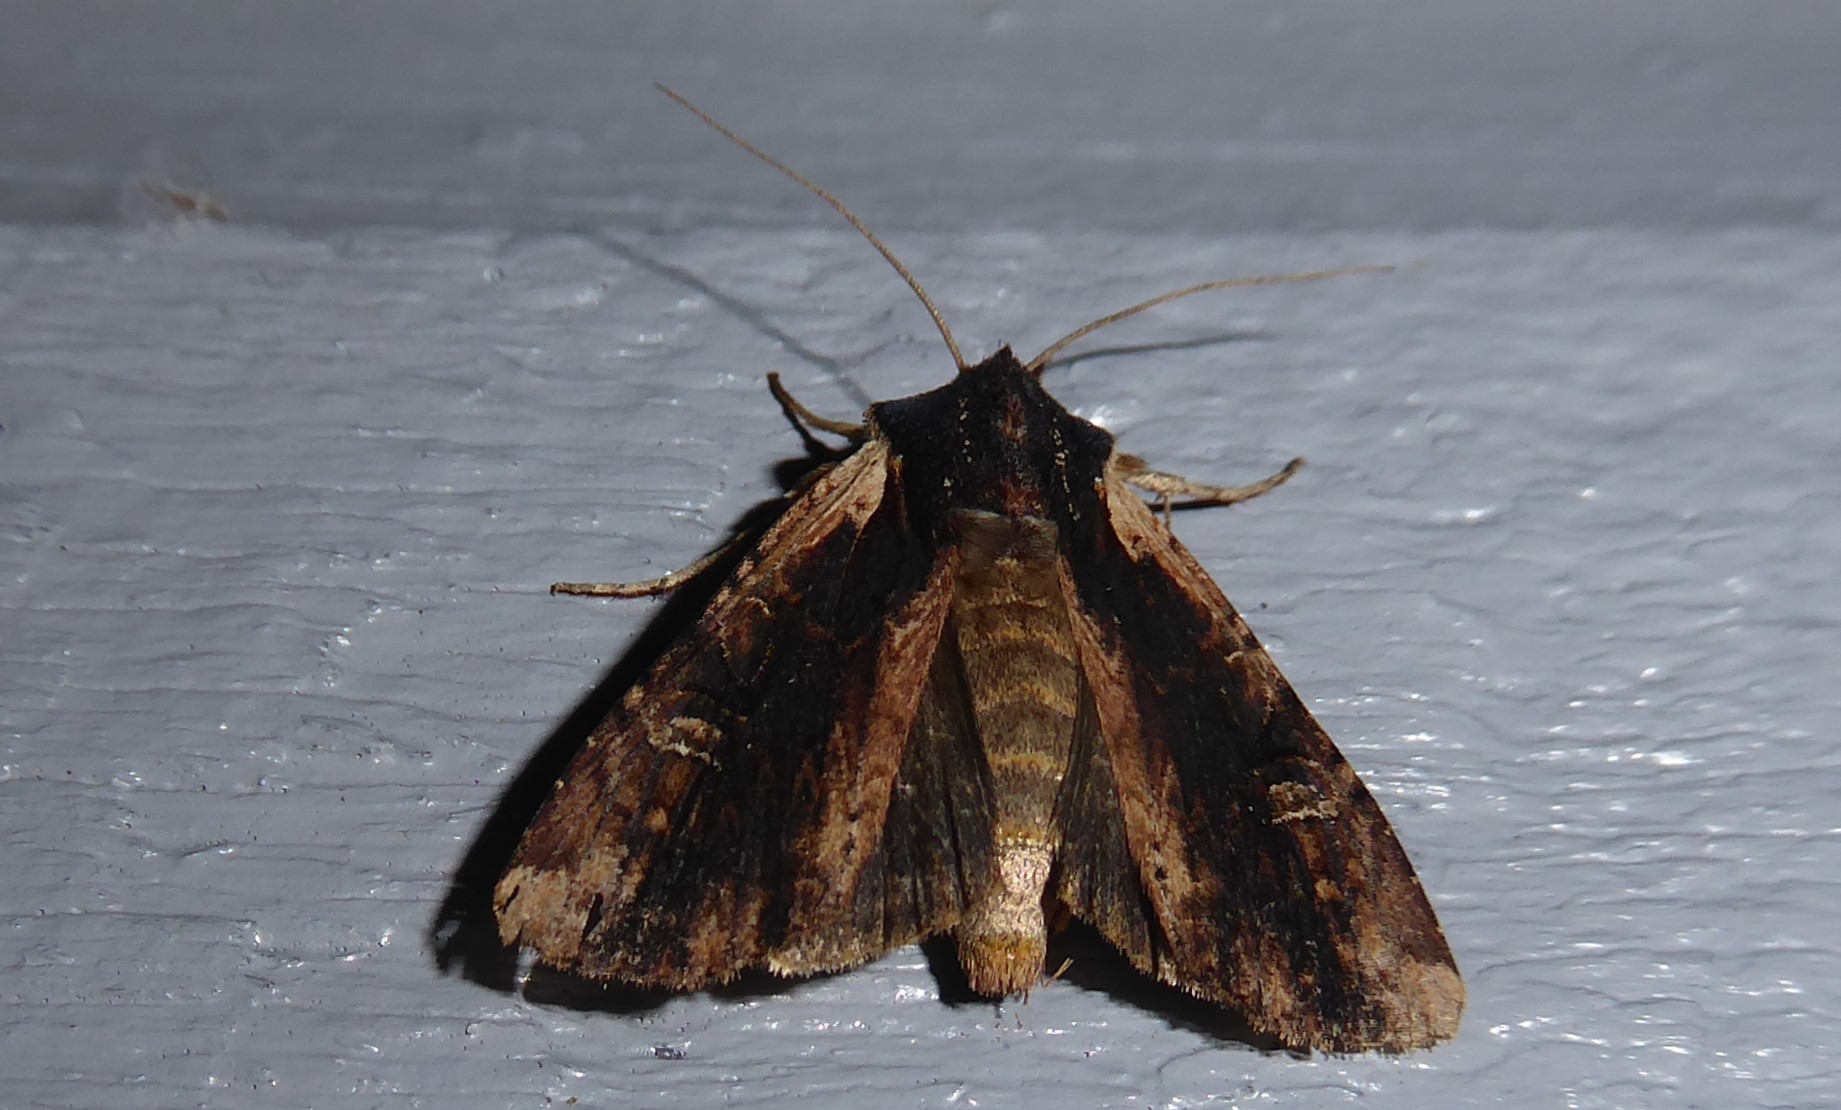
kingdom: Animalia
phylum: Arthropoda
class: Insecta
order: Lepidoptera
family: Noctuidae
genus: Ichneutica
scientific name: Ichneutica omoplaca
